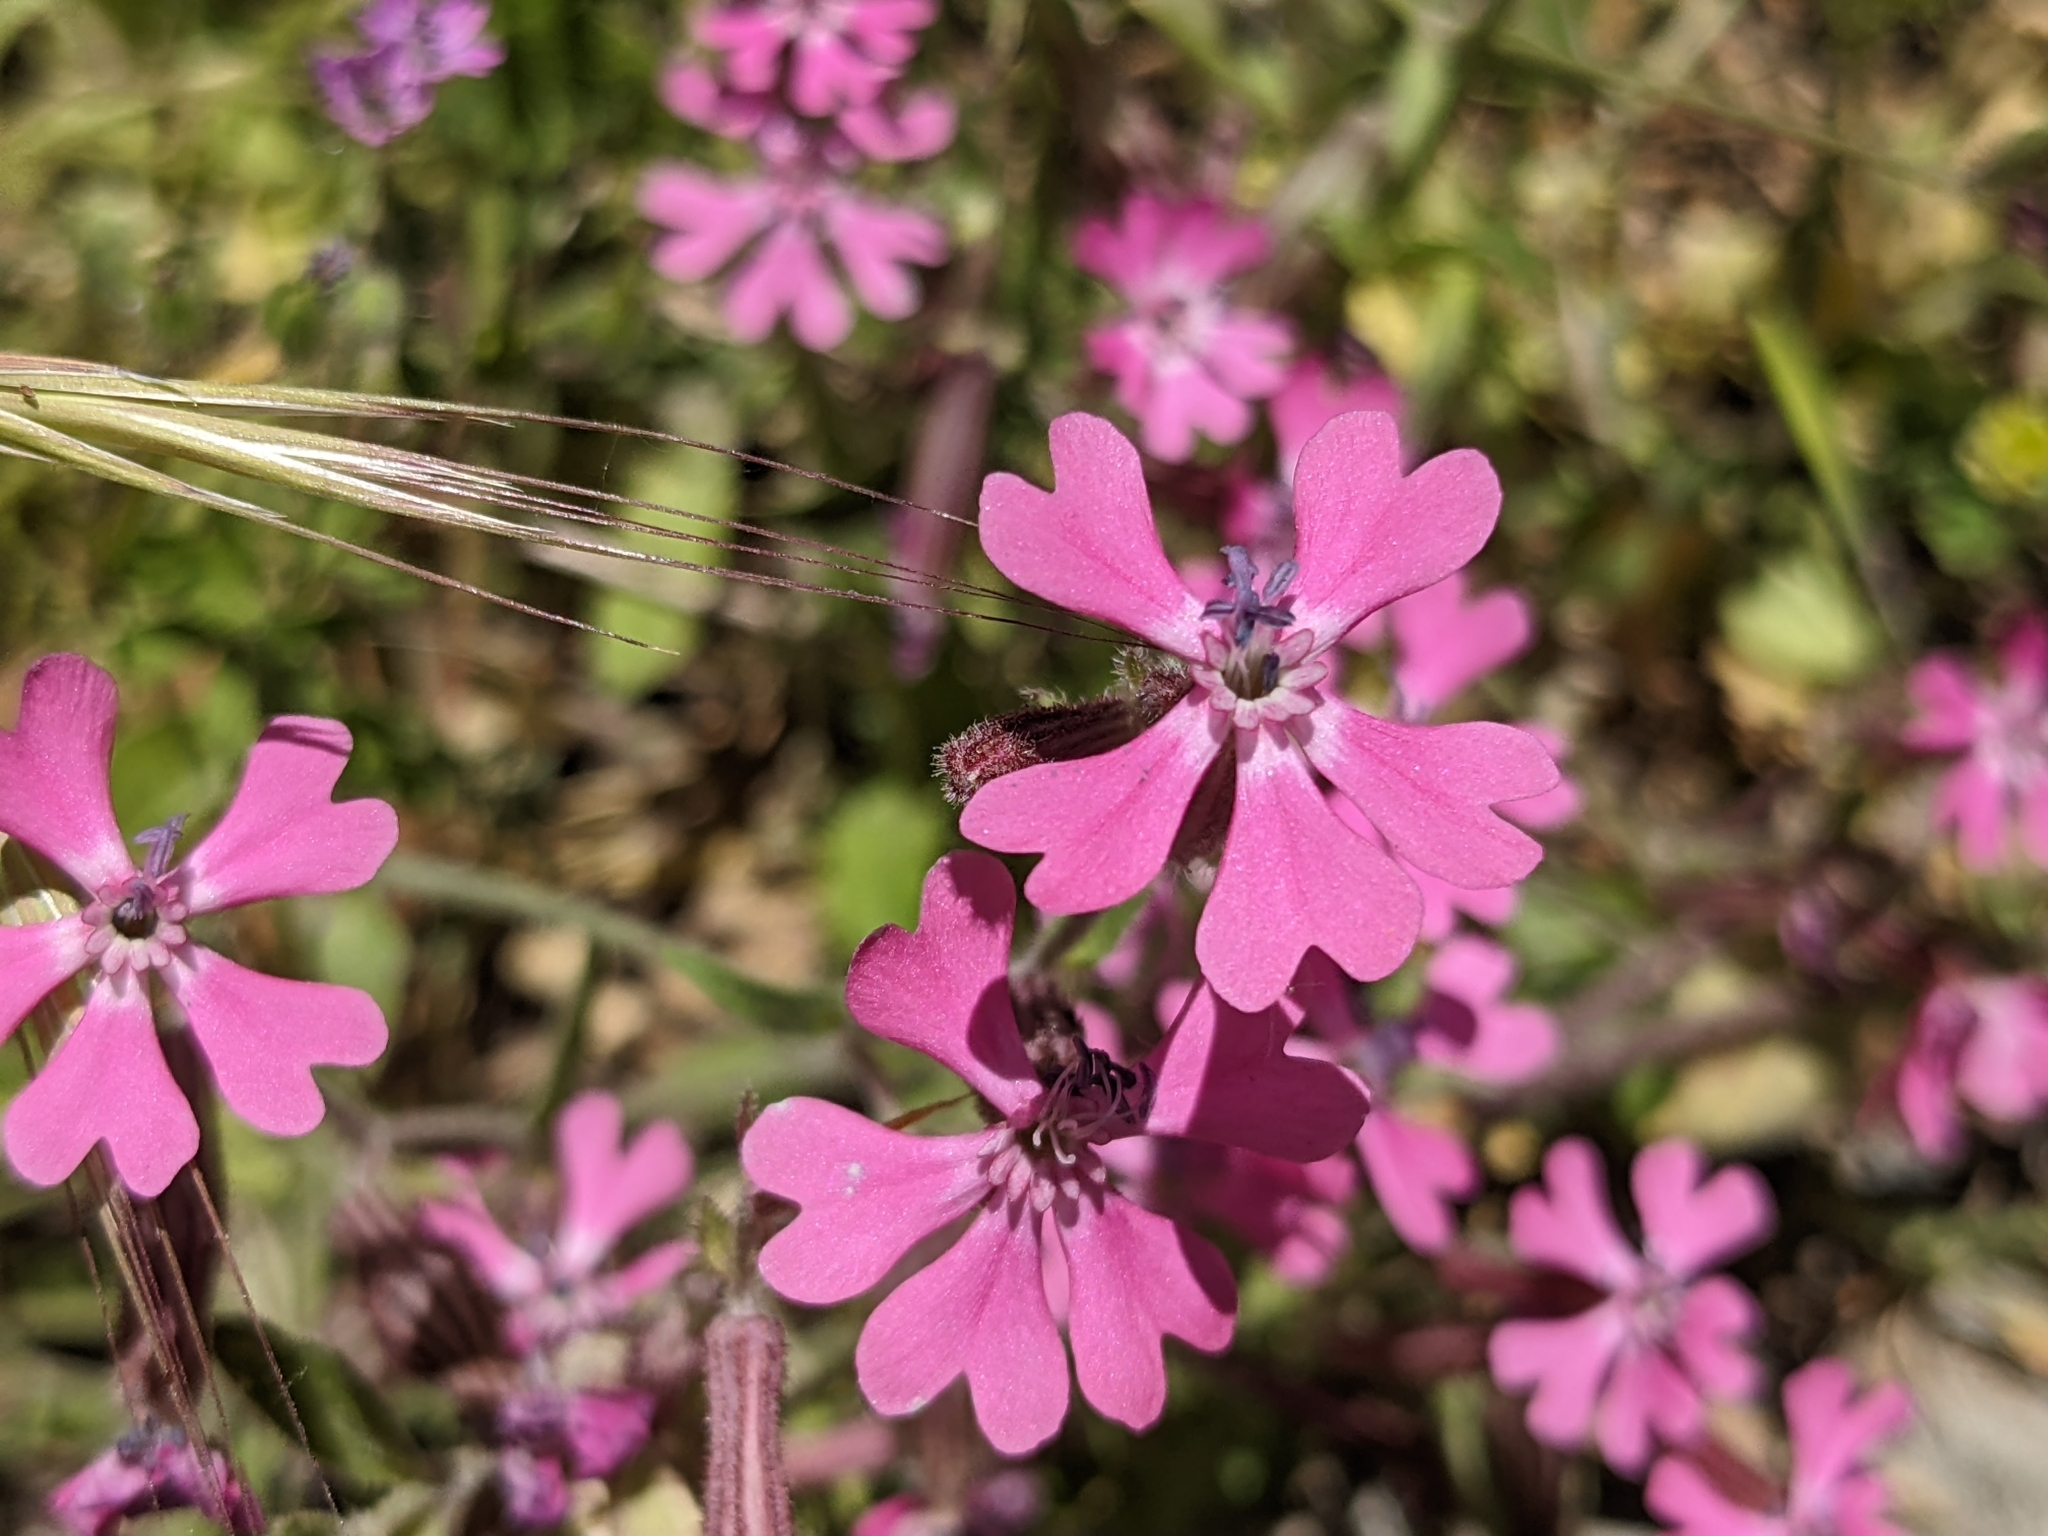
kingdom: Plantae
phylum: Tracheophyta
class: Magnoliopsida
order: Caryophyllales
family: Caryophyllaceae
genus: Silene
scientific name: Silene colorata
